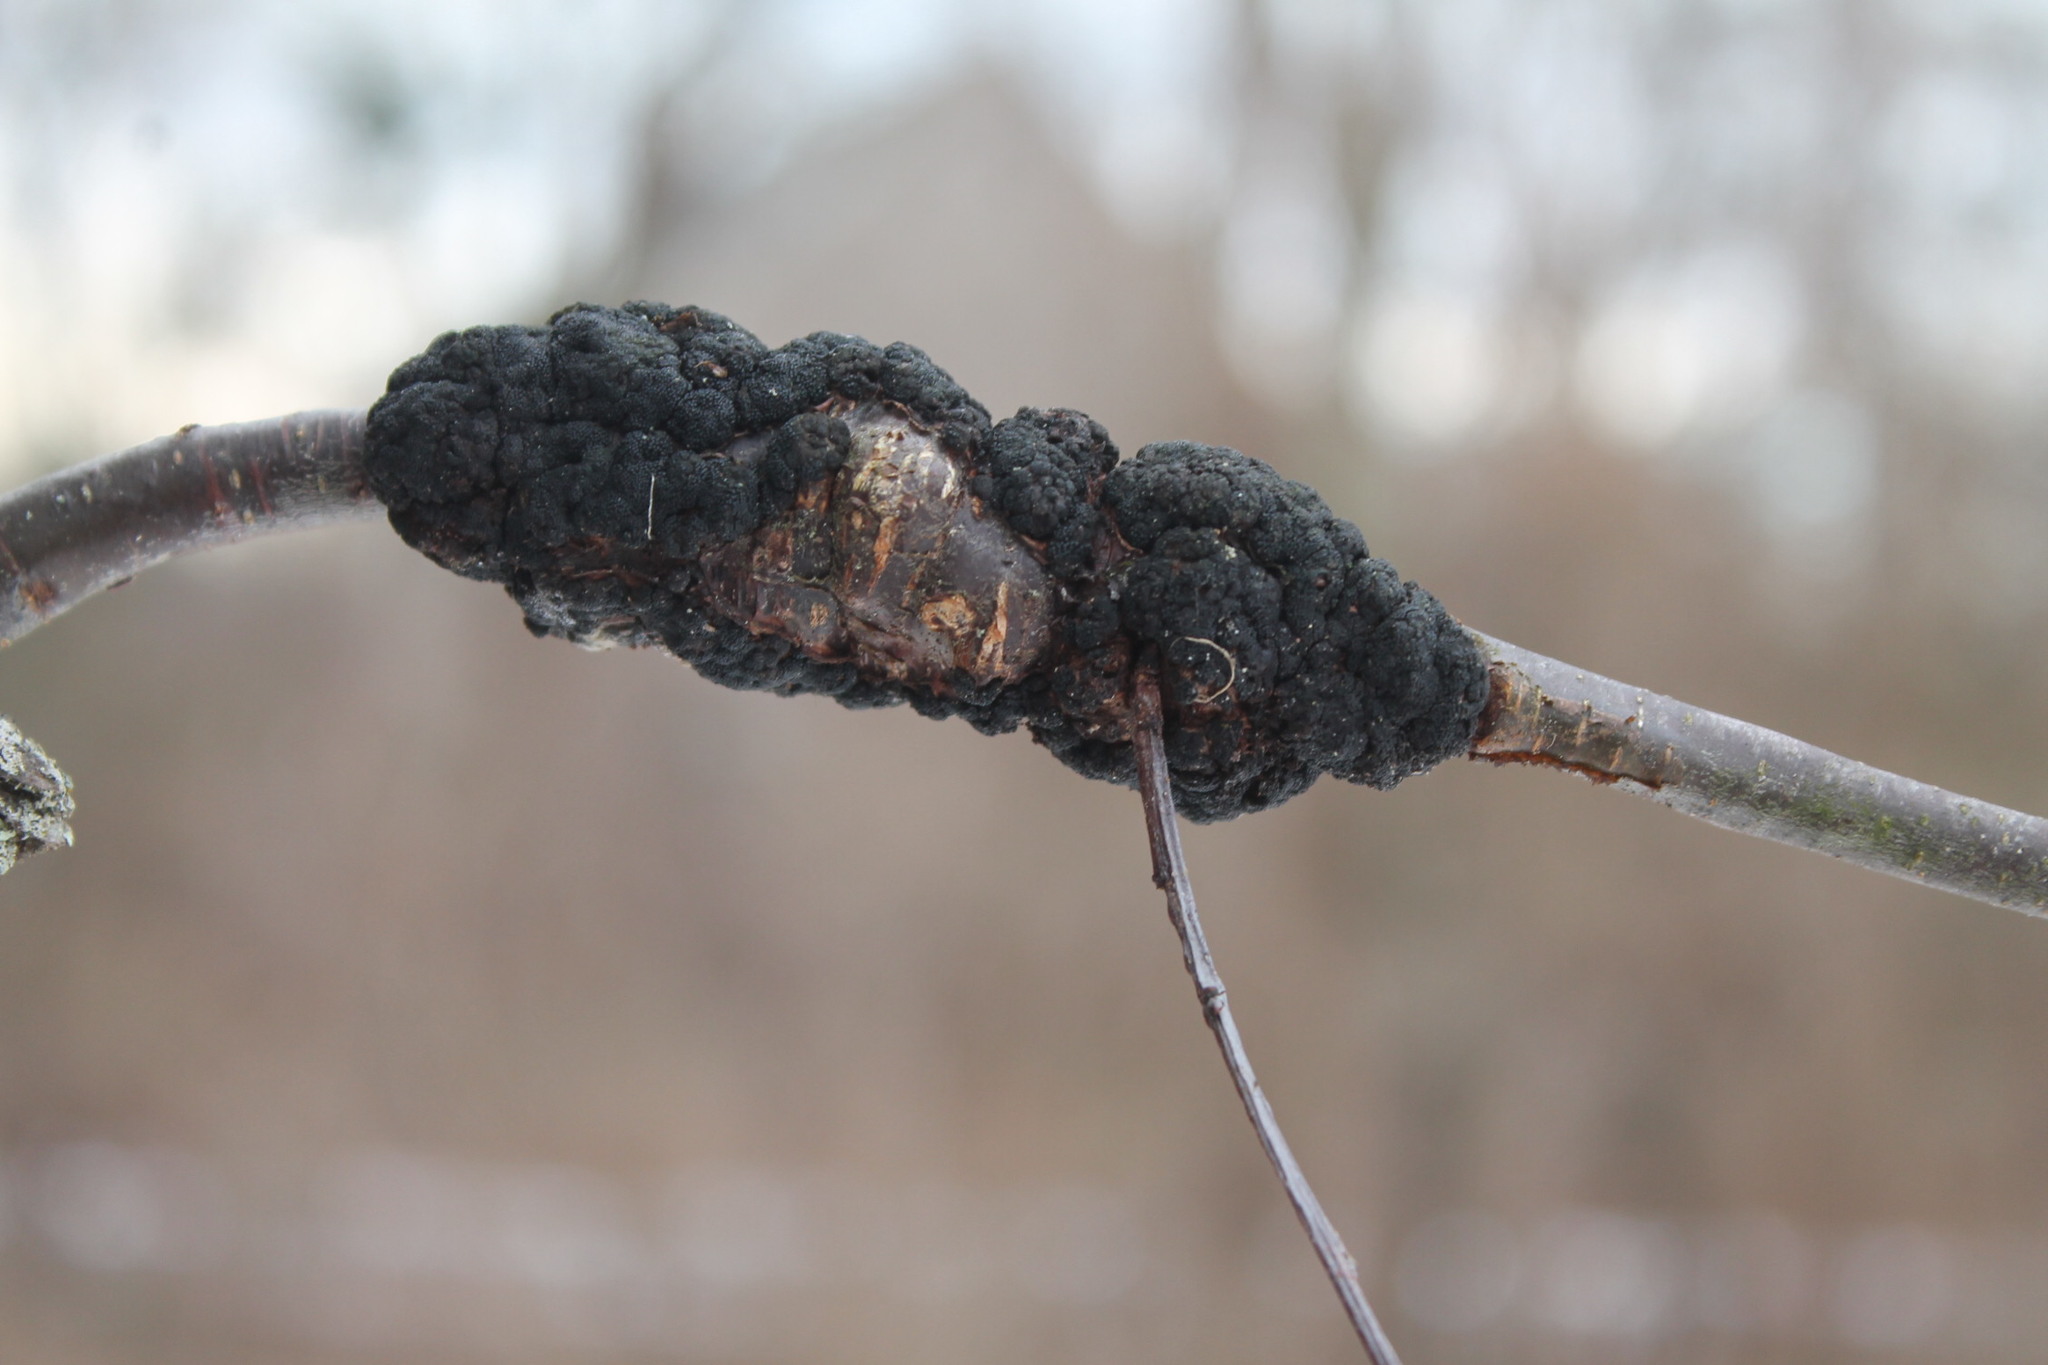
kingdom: Fungi
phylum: Ascomycota
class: Dothideomycetes
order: Venturiales
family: Venturiaceae
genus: Apiosporina
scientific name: Apiosporina morbosa
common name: Black knot
